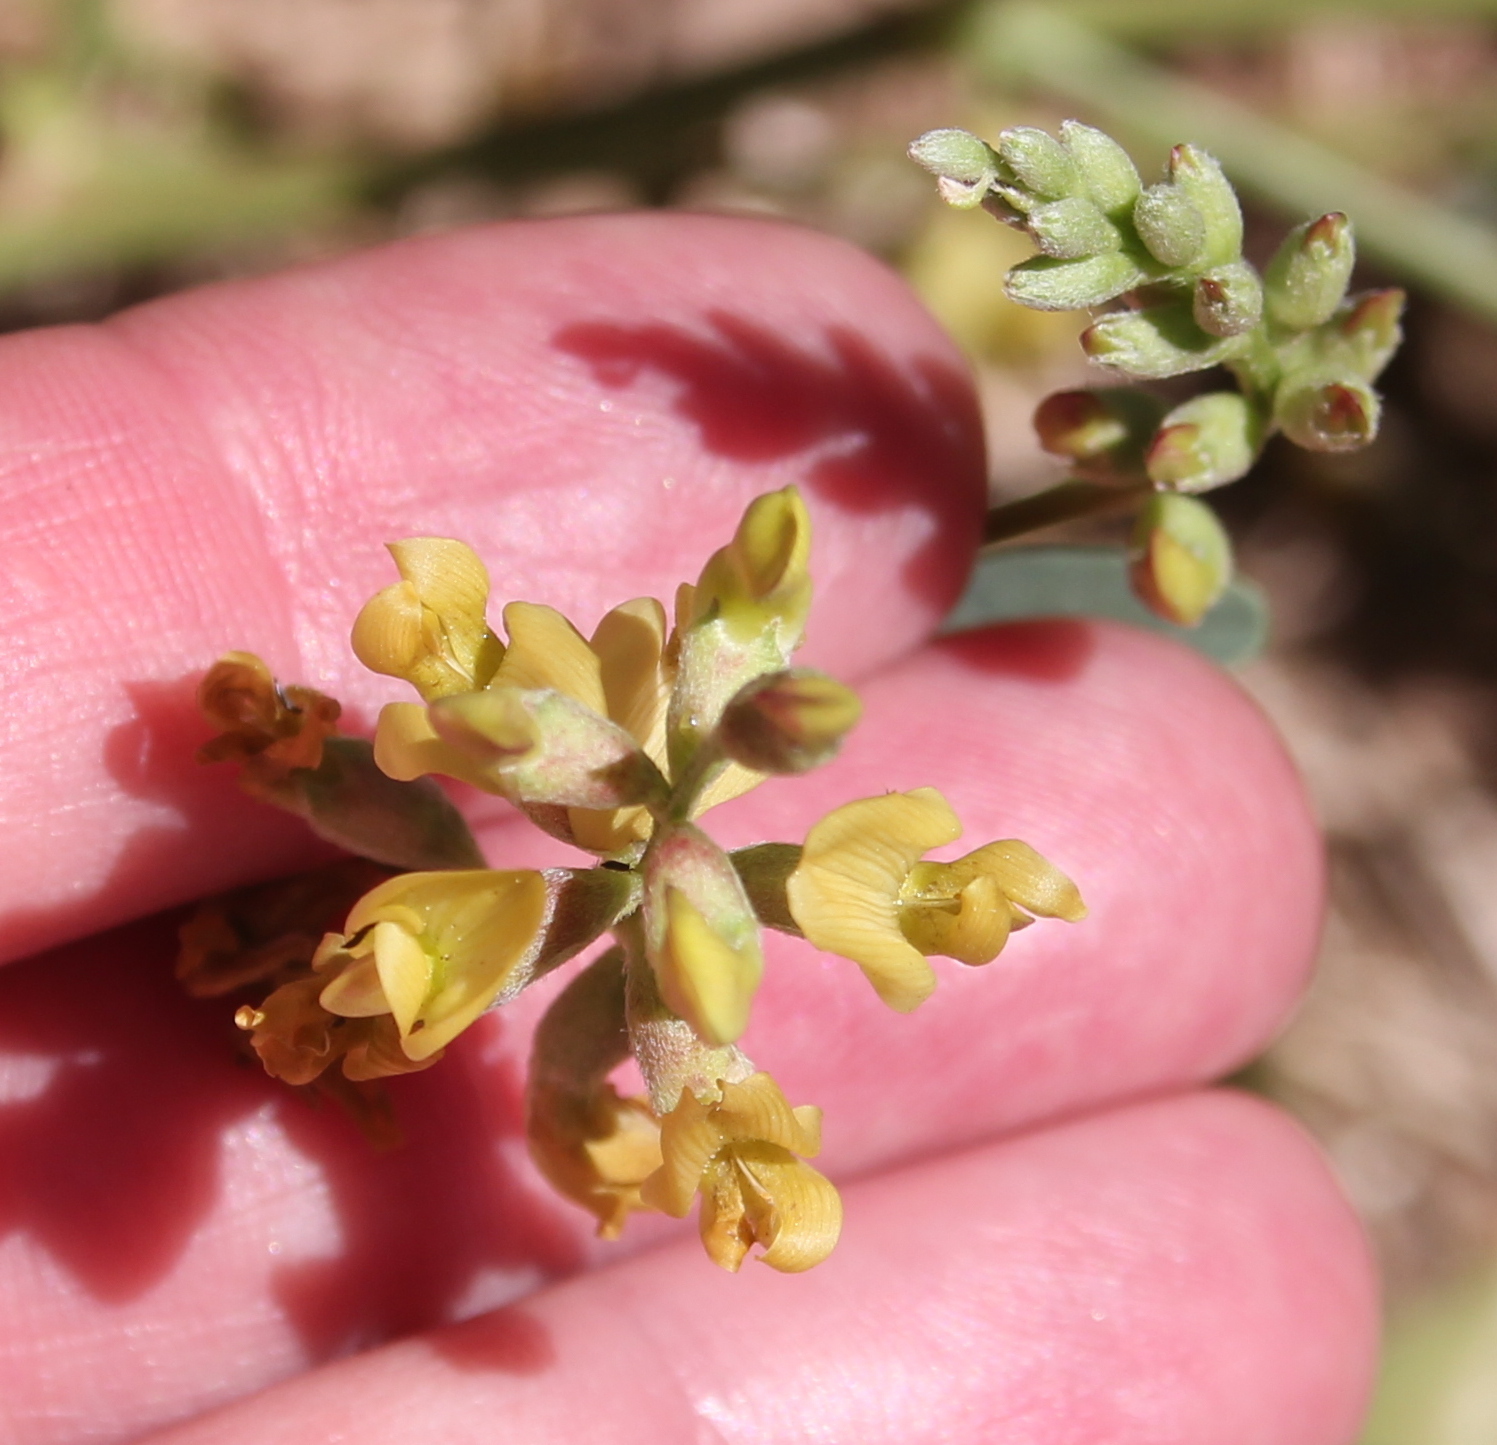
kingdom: Plantae
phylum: Tracheophyta
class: Magnoliopsida
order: Fabales
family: Fabaceae
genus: Astragalus
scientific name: Astragalus douglasii
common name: Jacumba milkvetch
